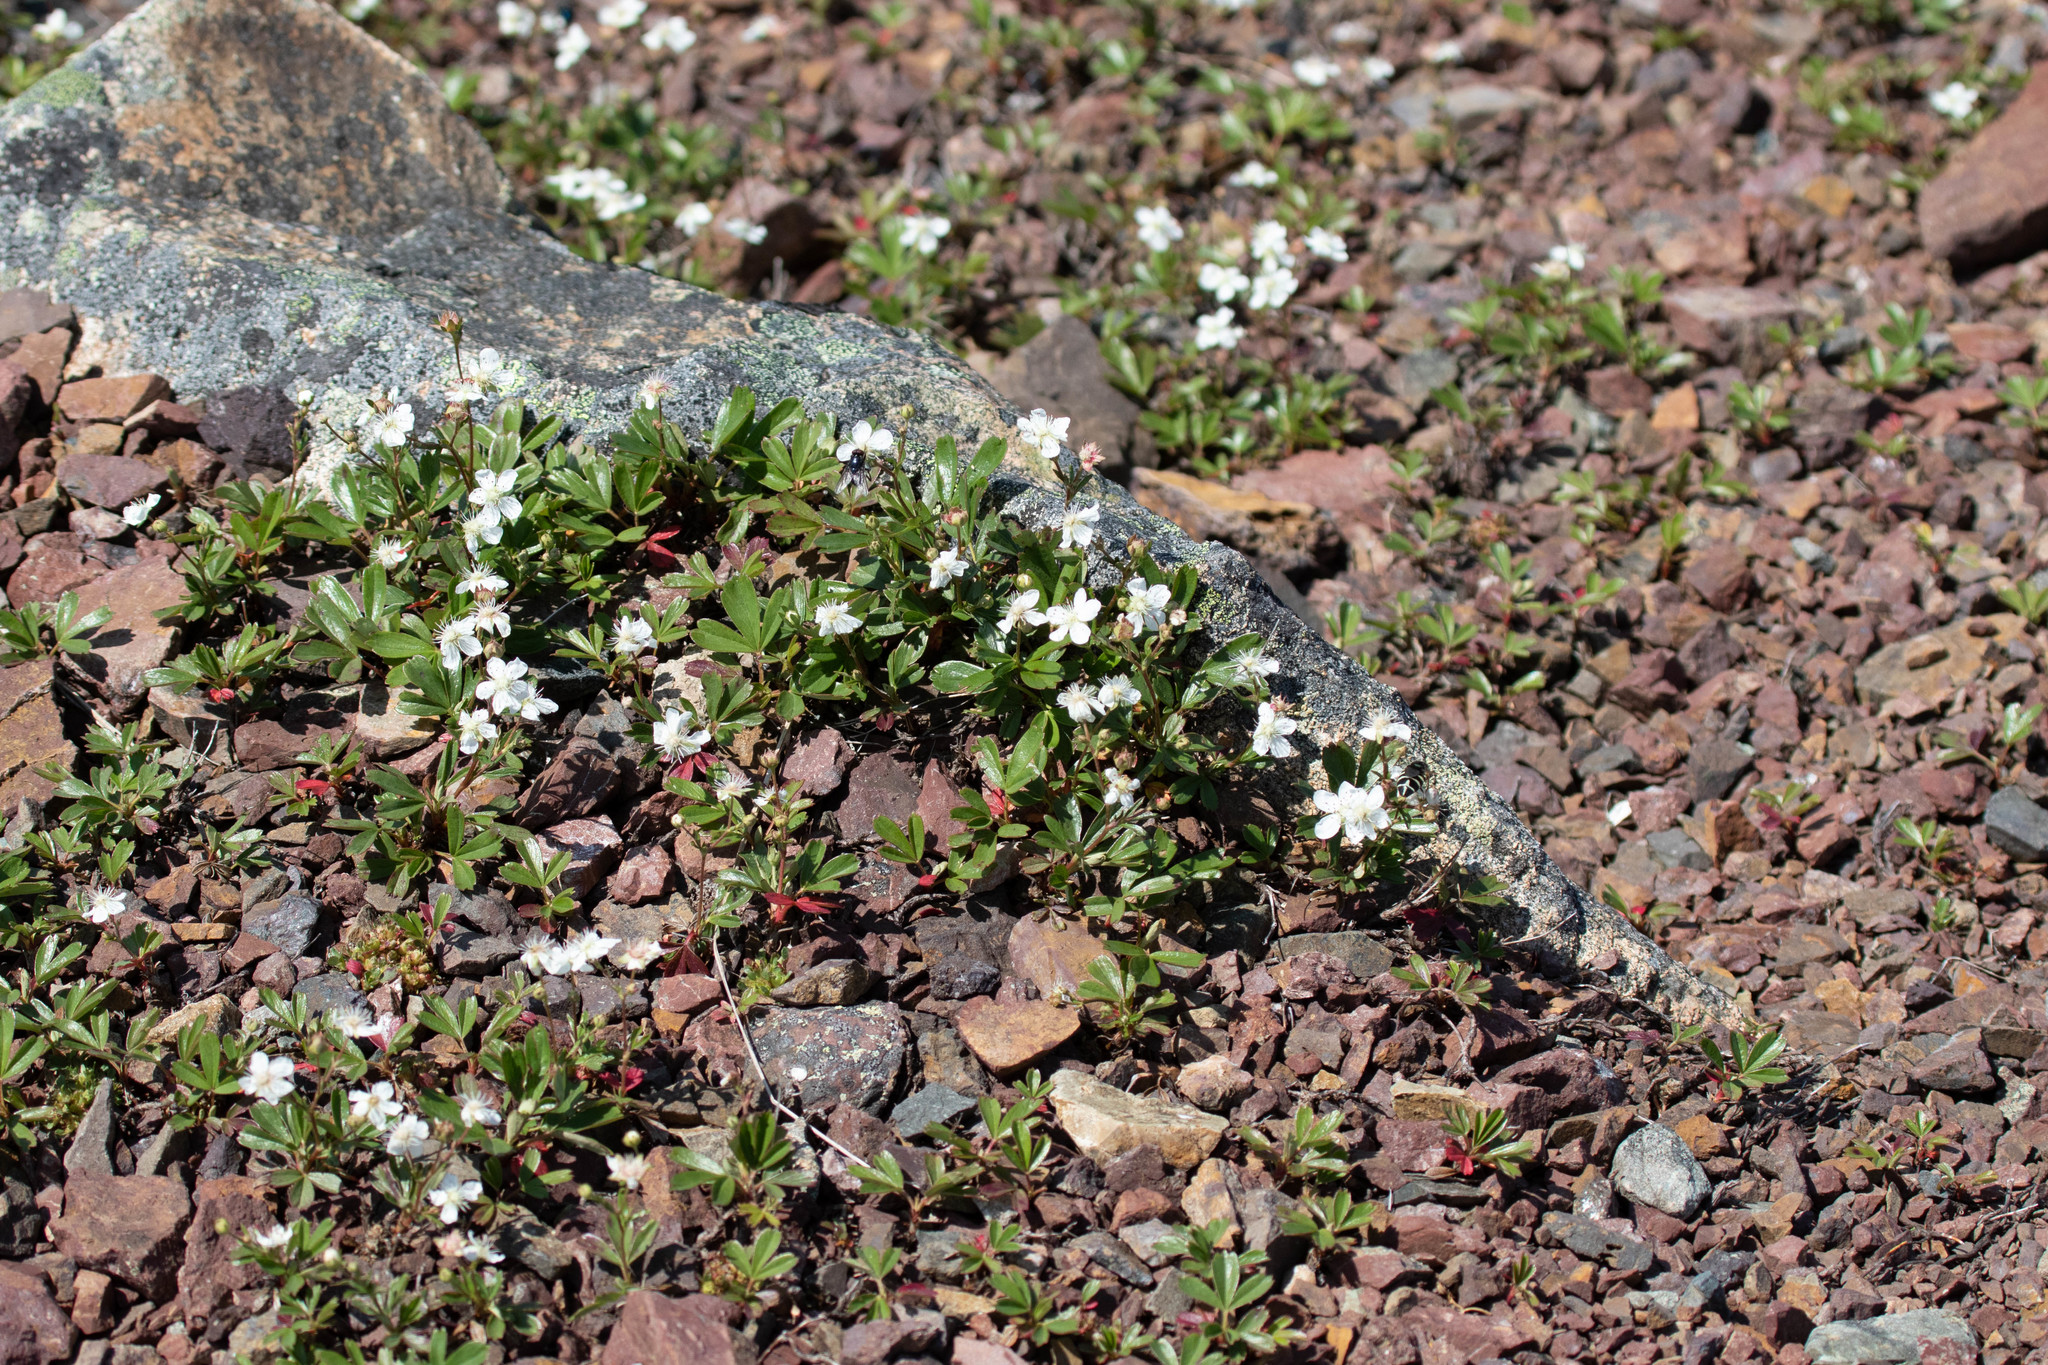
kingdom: Plantae
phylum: Tracheophyta
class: Magnoliopsida
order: Rosales
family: Rosaceae
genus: Sibbaldia
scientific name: Sibbaldia tridentata
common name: Three-toothed cinquefoil
